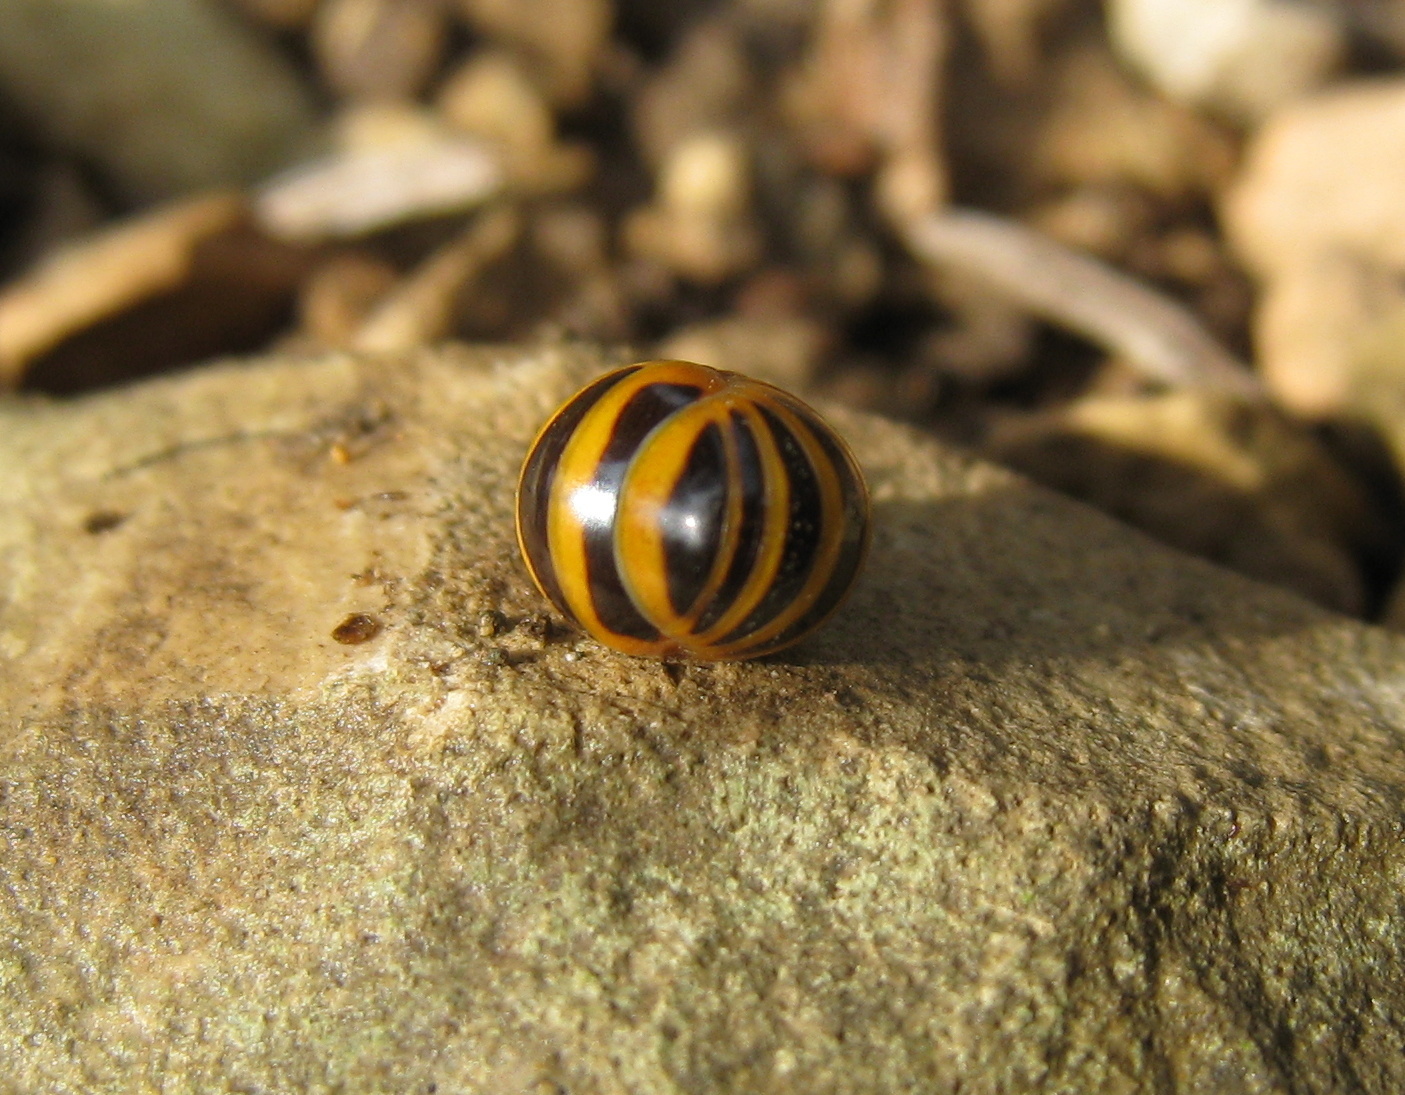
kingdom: Animalia
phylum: Arthropoda
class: Diplopoda
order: Glomerida
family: Glomeridae
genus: Glomeris
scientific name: Glomeris annulata
